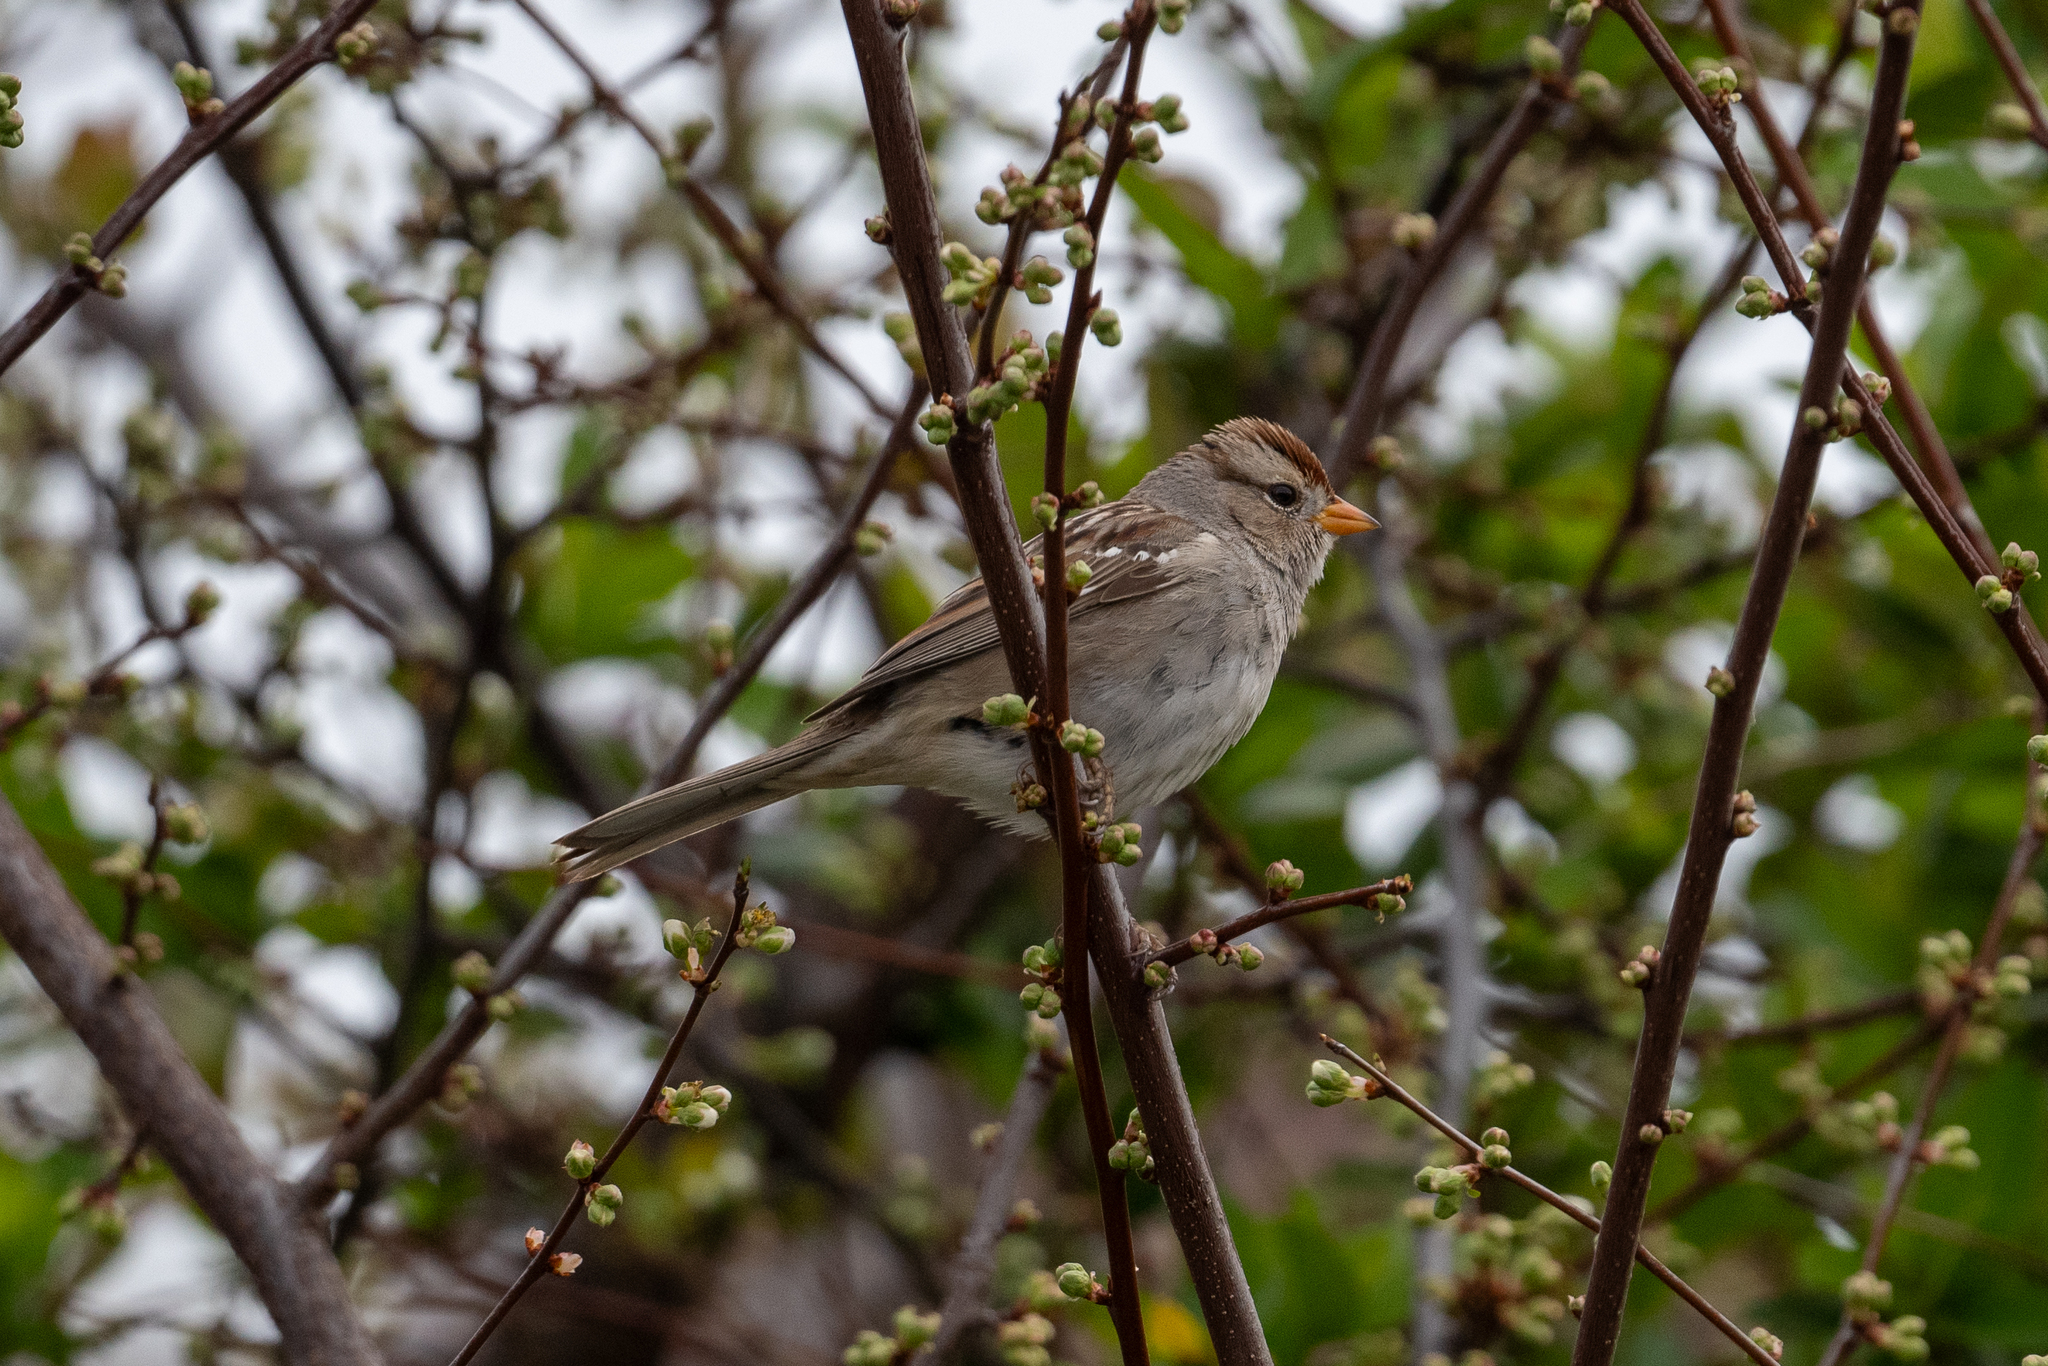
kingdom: Animalia
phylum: Chordata
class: Aves
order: Passeriformes
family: Passerellidae
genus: Zonotrichia
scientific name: Zonotrichia leucophrys
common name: White-crowned sparrow
